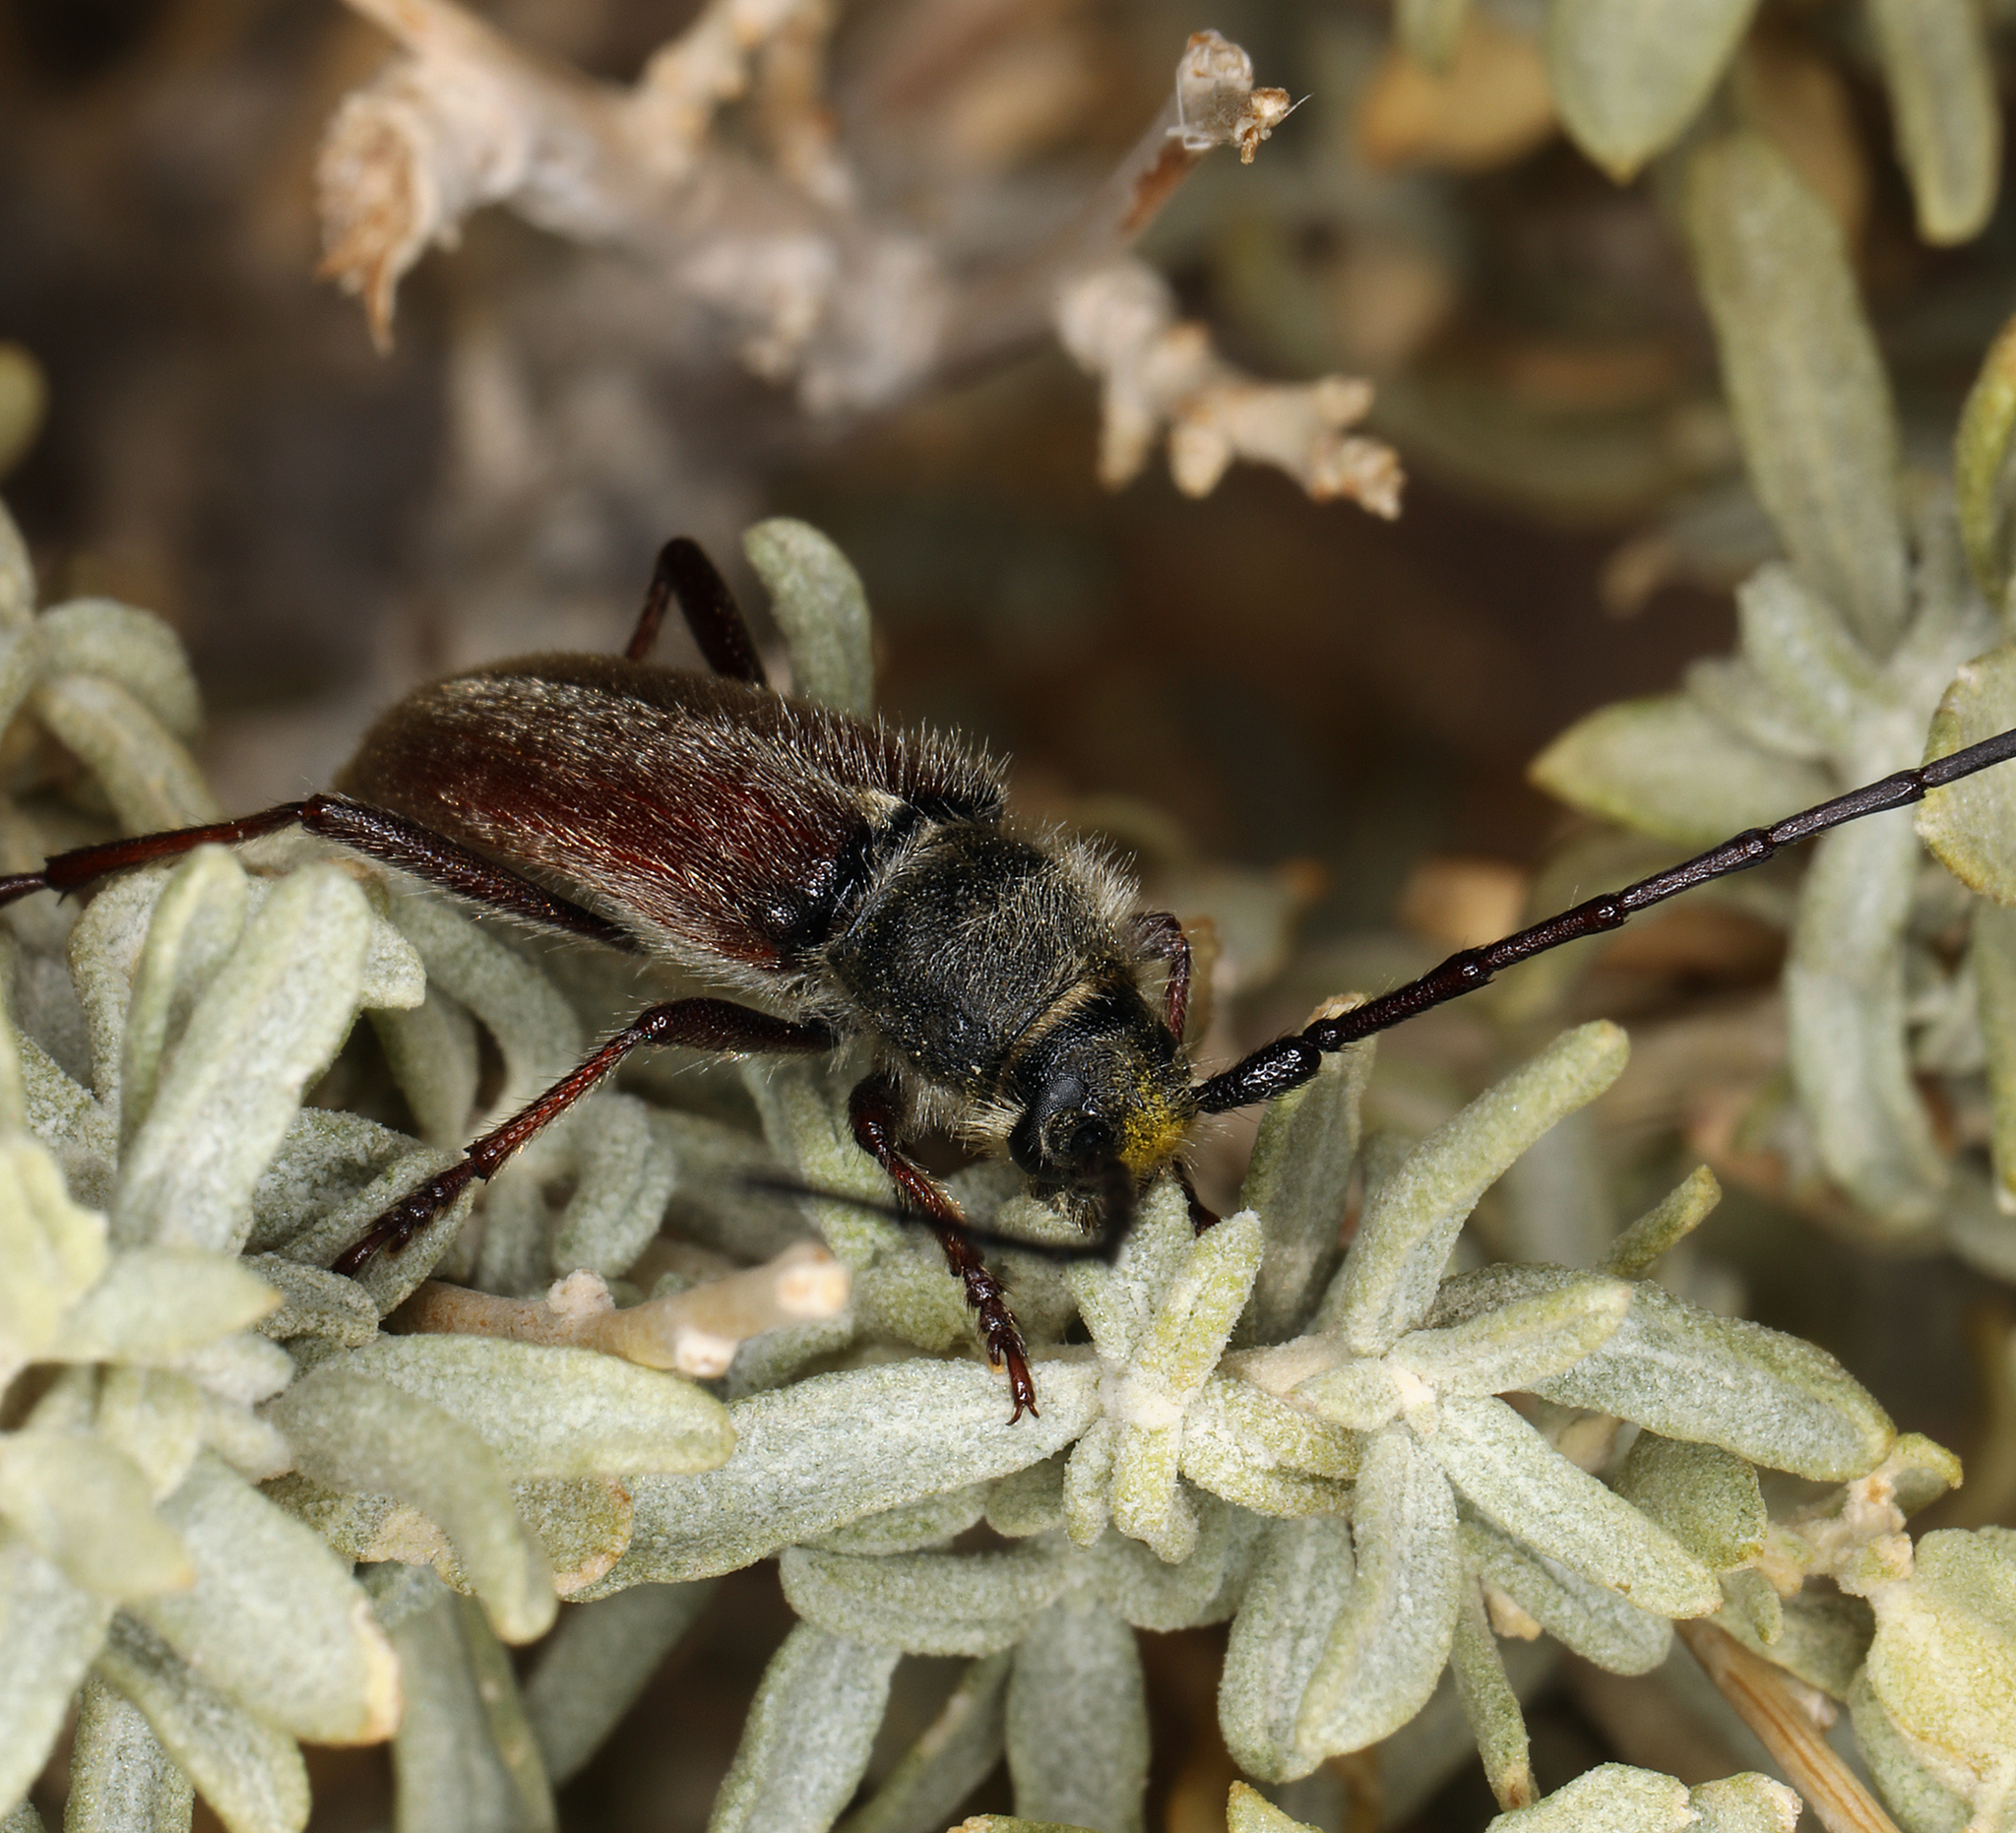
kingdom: Animalia
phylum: Arthropoda
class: Insecta
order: Coleoptera
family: Cerambycidae
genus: Crossidius
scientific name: Crossidius hirtipes
